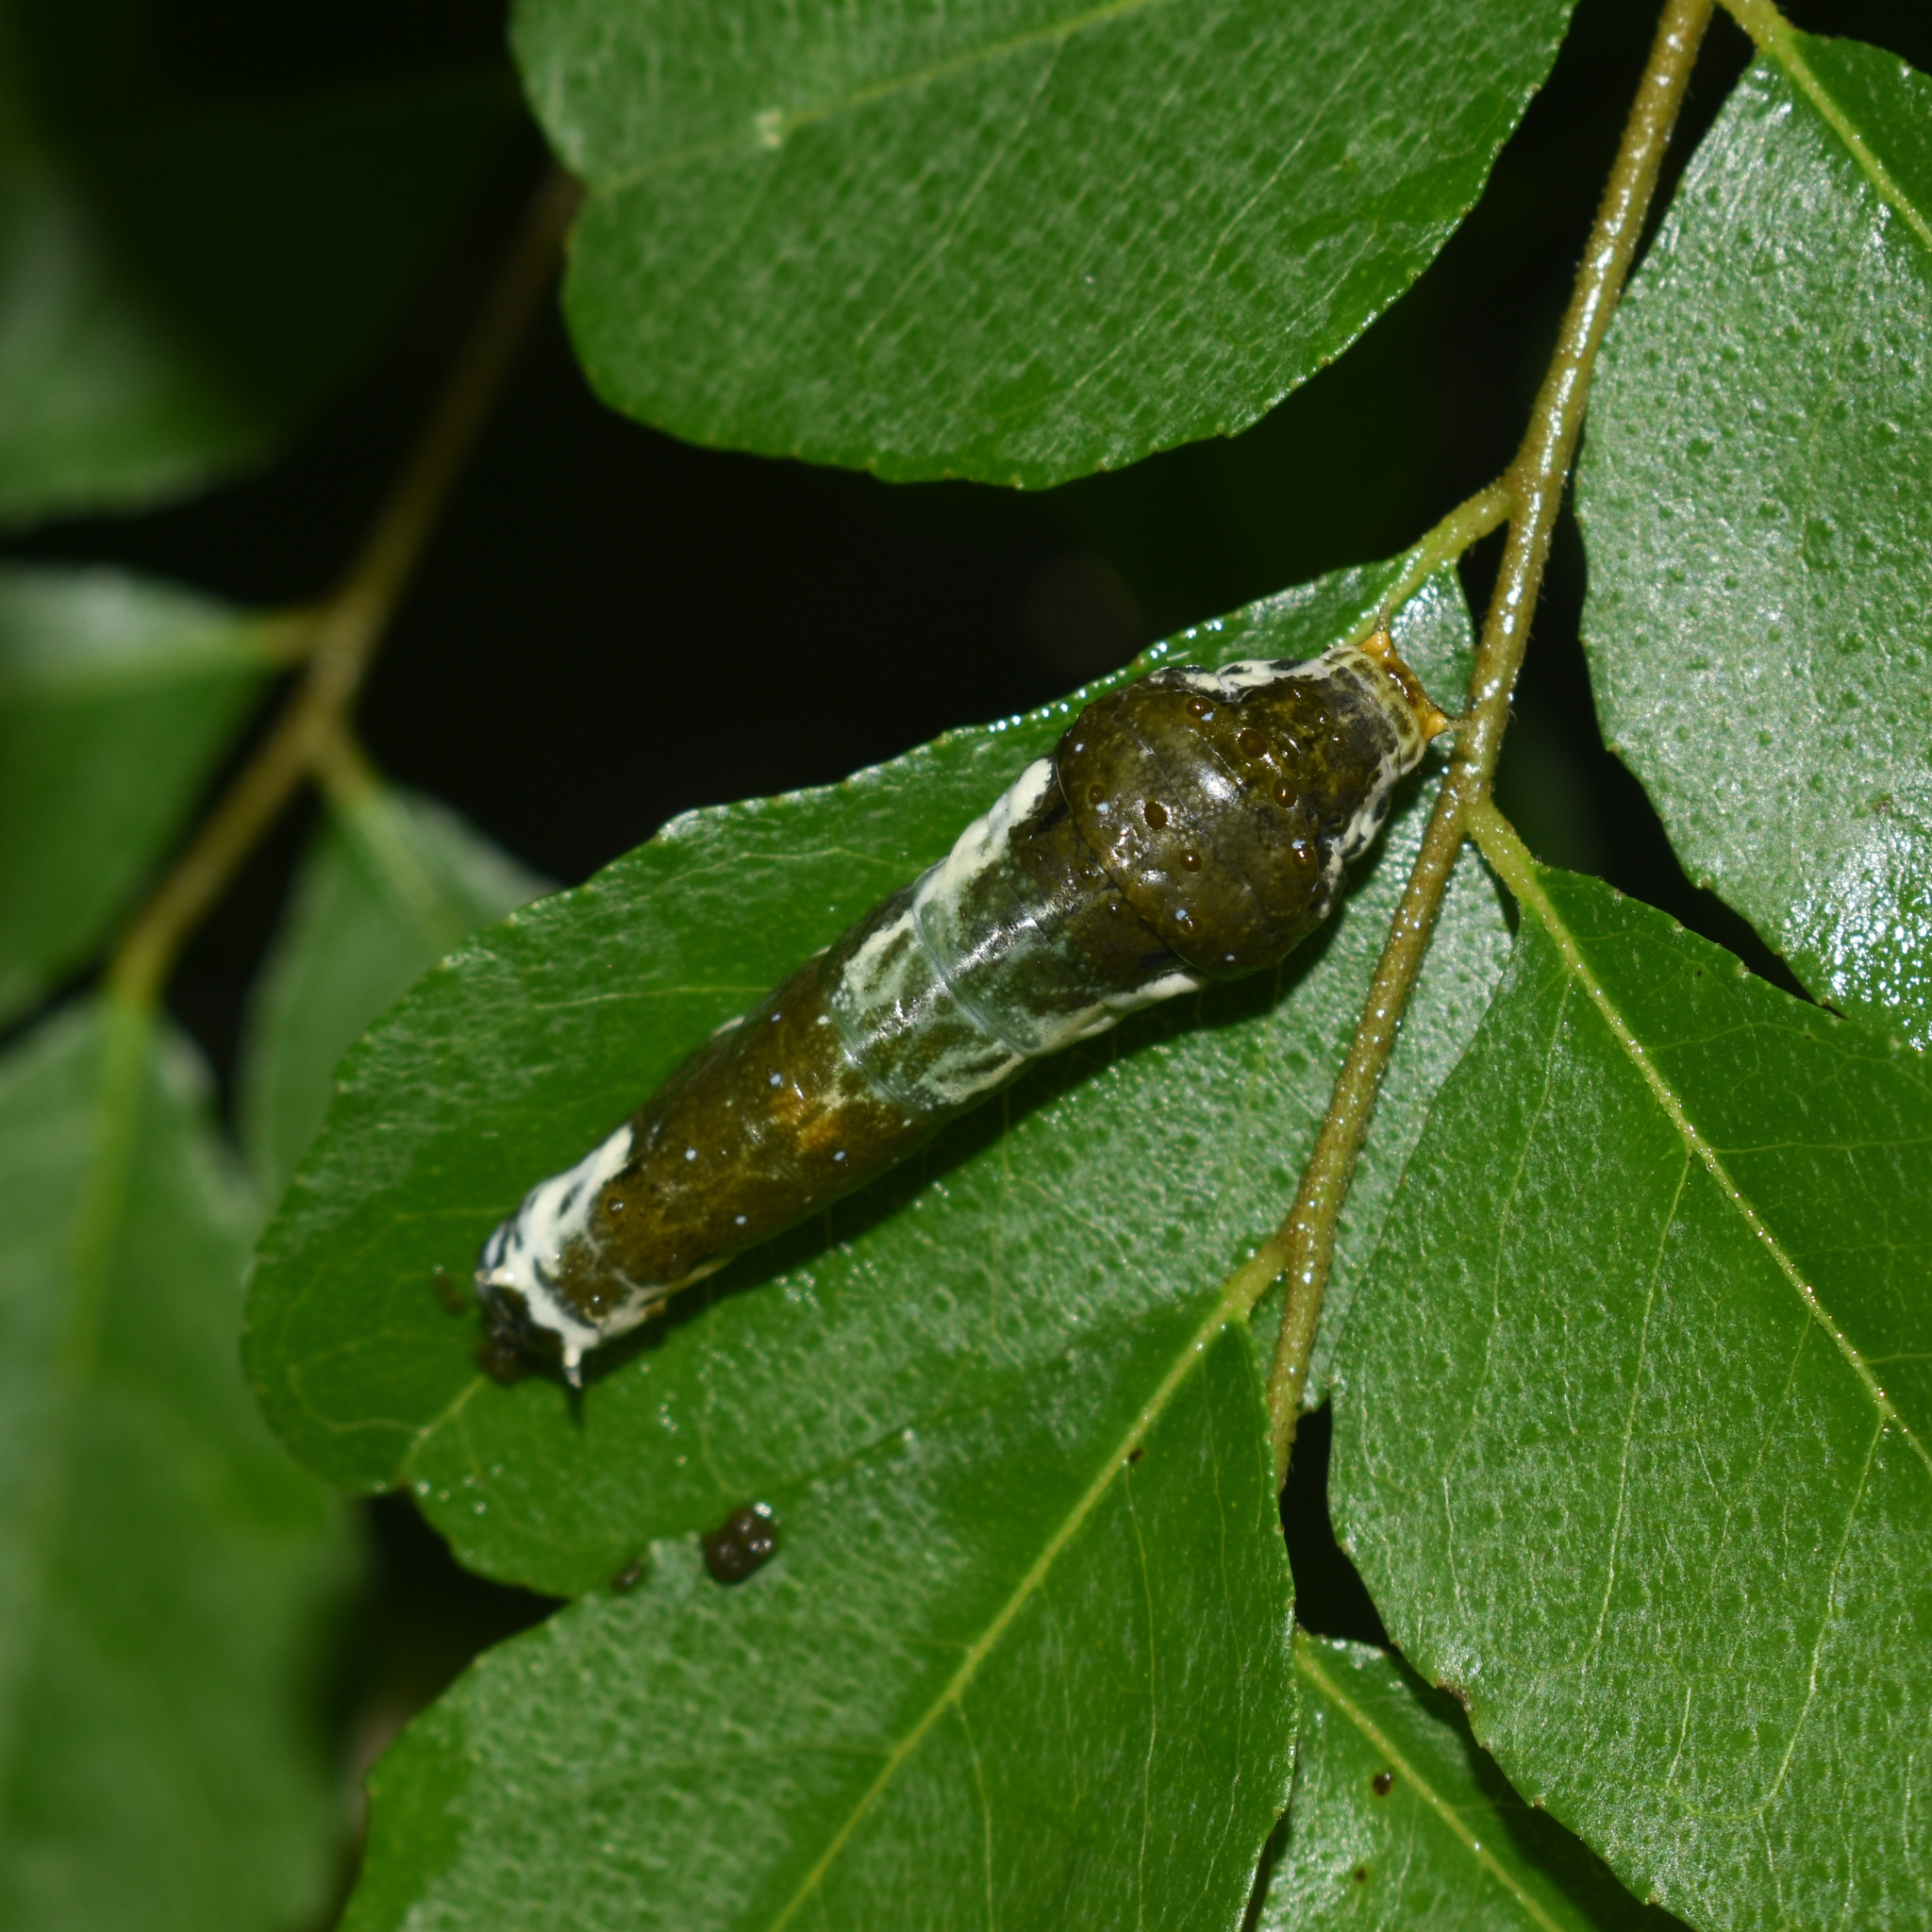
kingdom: Animalia
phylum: Arthropoda
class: Insecta
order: Lepidoptera
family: Papilionidae
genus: Papilio
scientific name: Papilio polytes
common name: Common mormon
